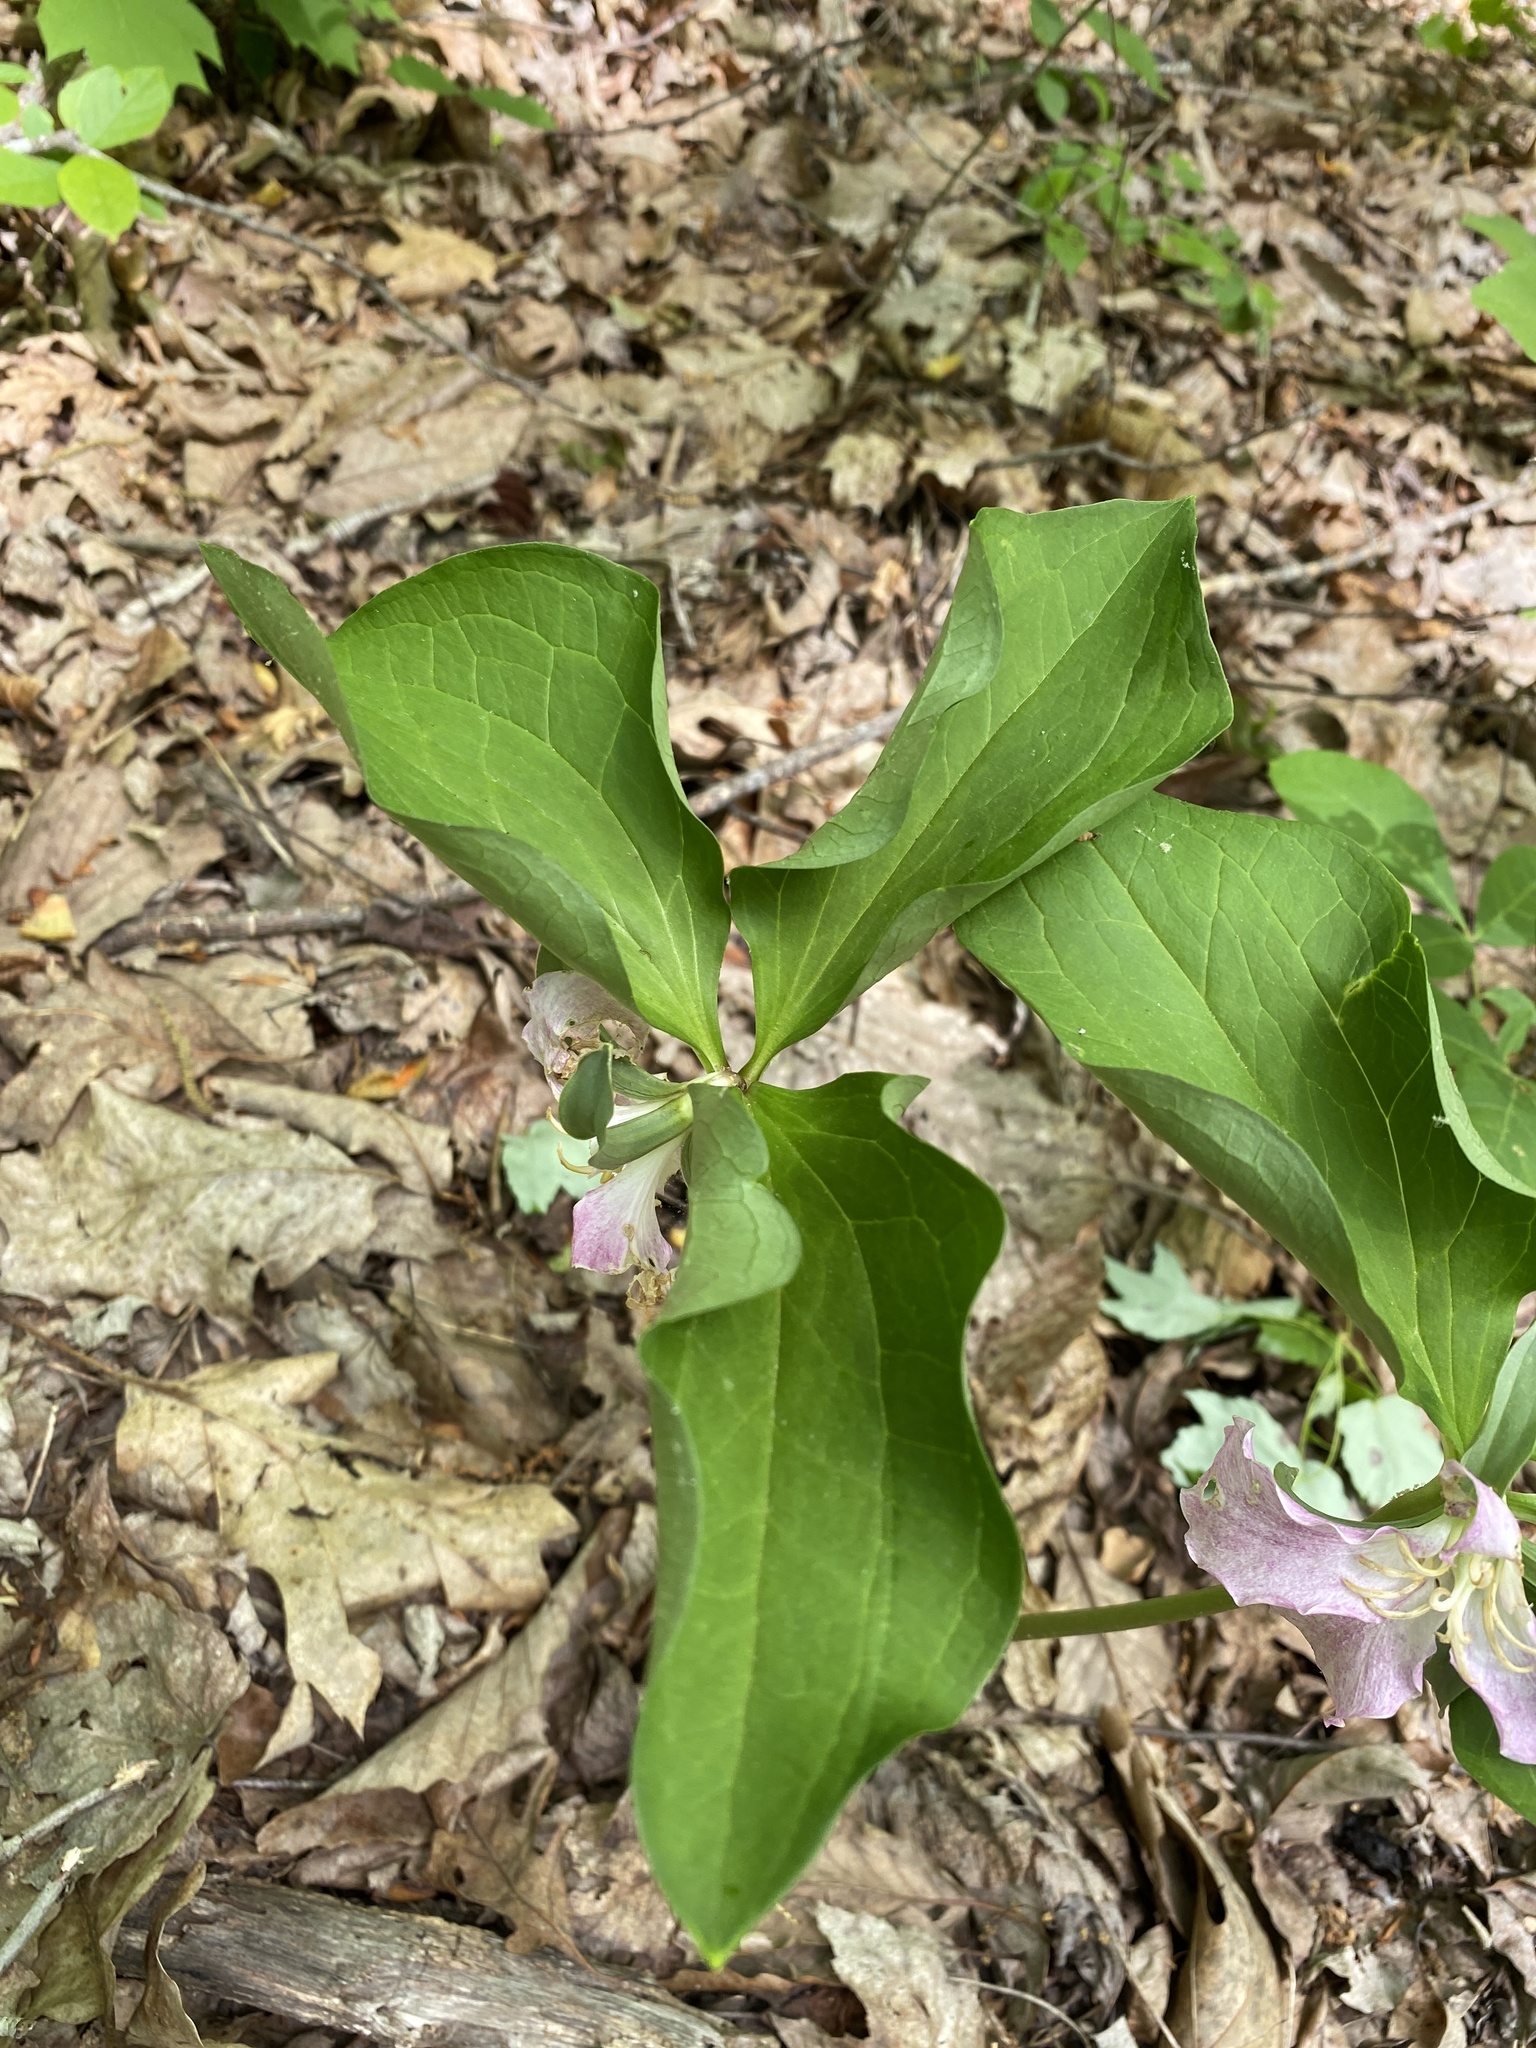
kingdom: Plantae
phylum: Tracheophyta
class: Liliopsida
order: Liliales
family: Melanthiaceae
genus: Trillium
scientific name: Trillium catesbaei
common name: Bashful trillium
